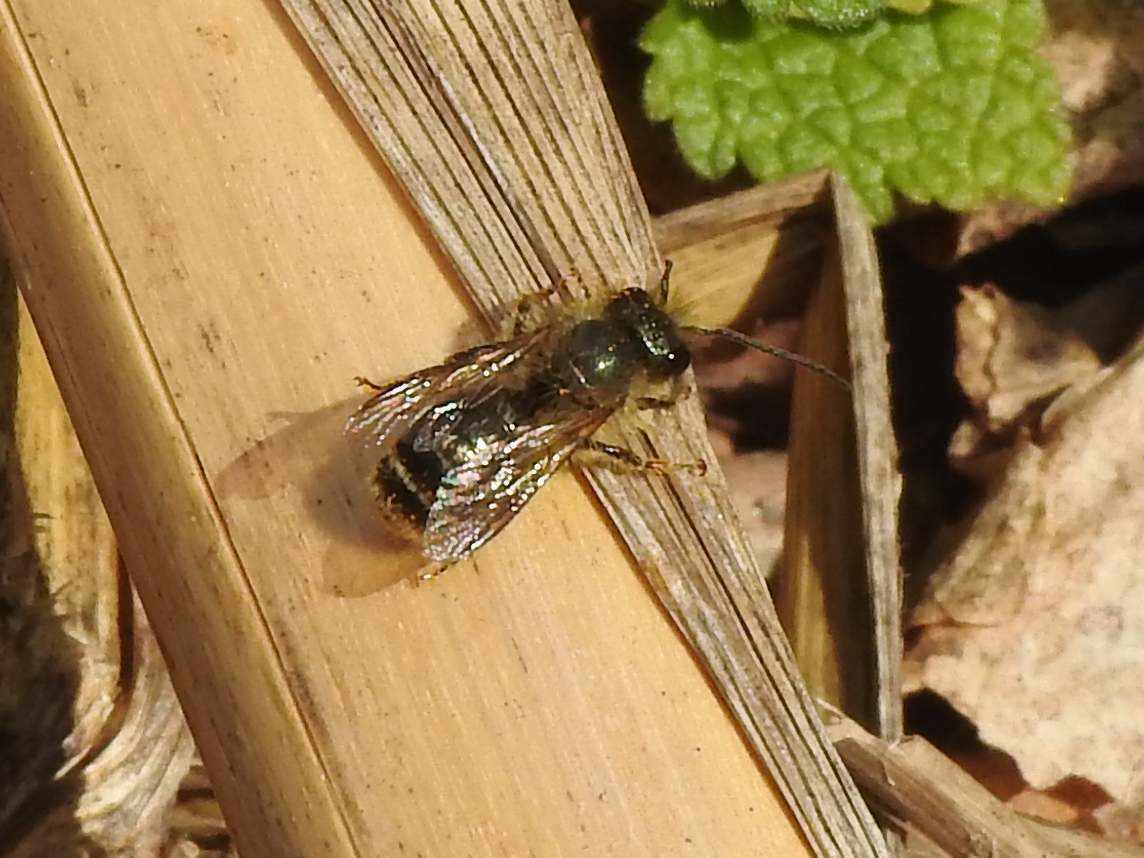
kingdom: Animalia
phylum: Arthropoda
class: Insecta
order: Hymenoptera
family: Megachilidae
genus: Osmia
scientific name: Osmia cornifrons
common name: Horn-faced bee
